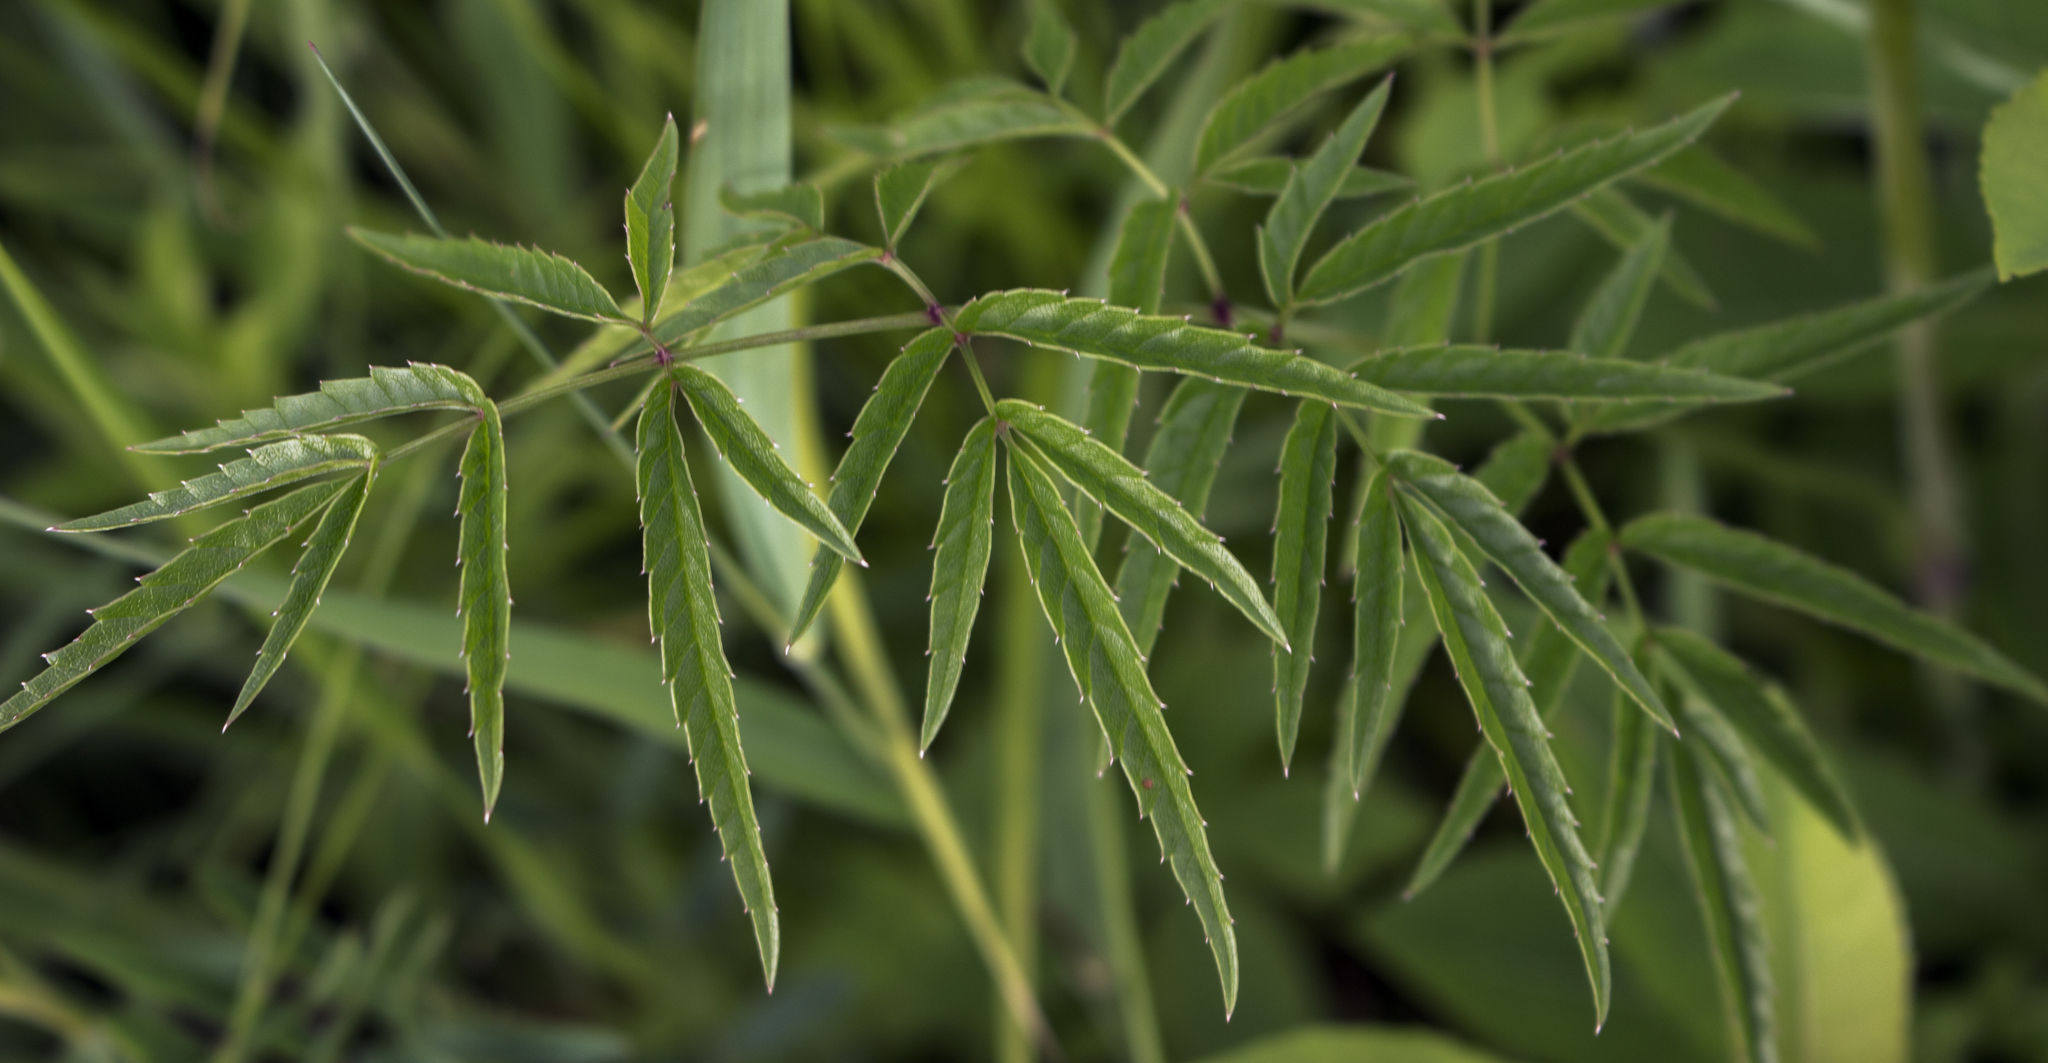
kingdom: Plantae
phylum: Tracheophyta
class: Magnoliopsida
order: Apiales
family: Apiaceae
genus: Cicuta
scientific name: Cicuta maculata
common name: Spotted cowbane
